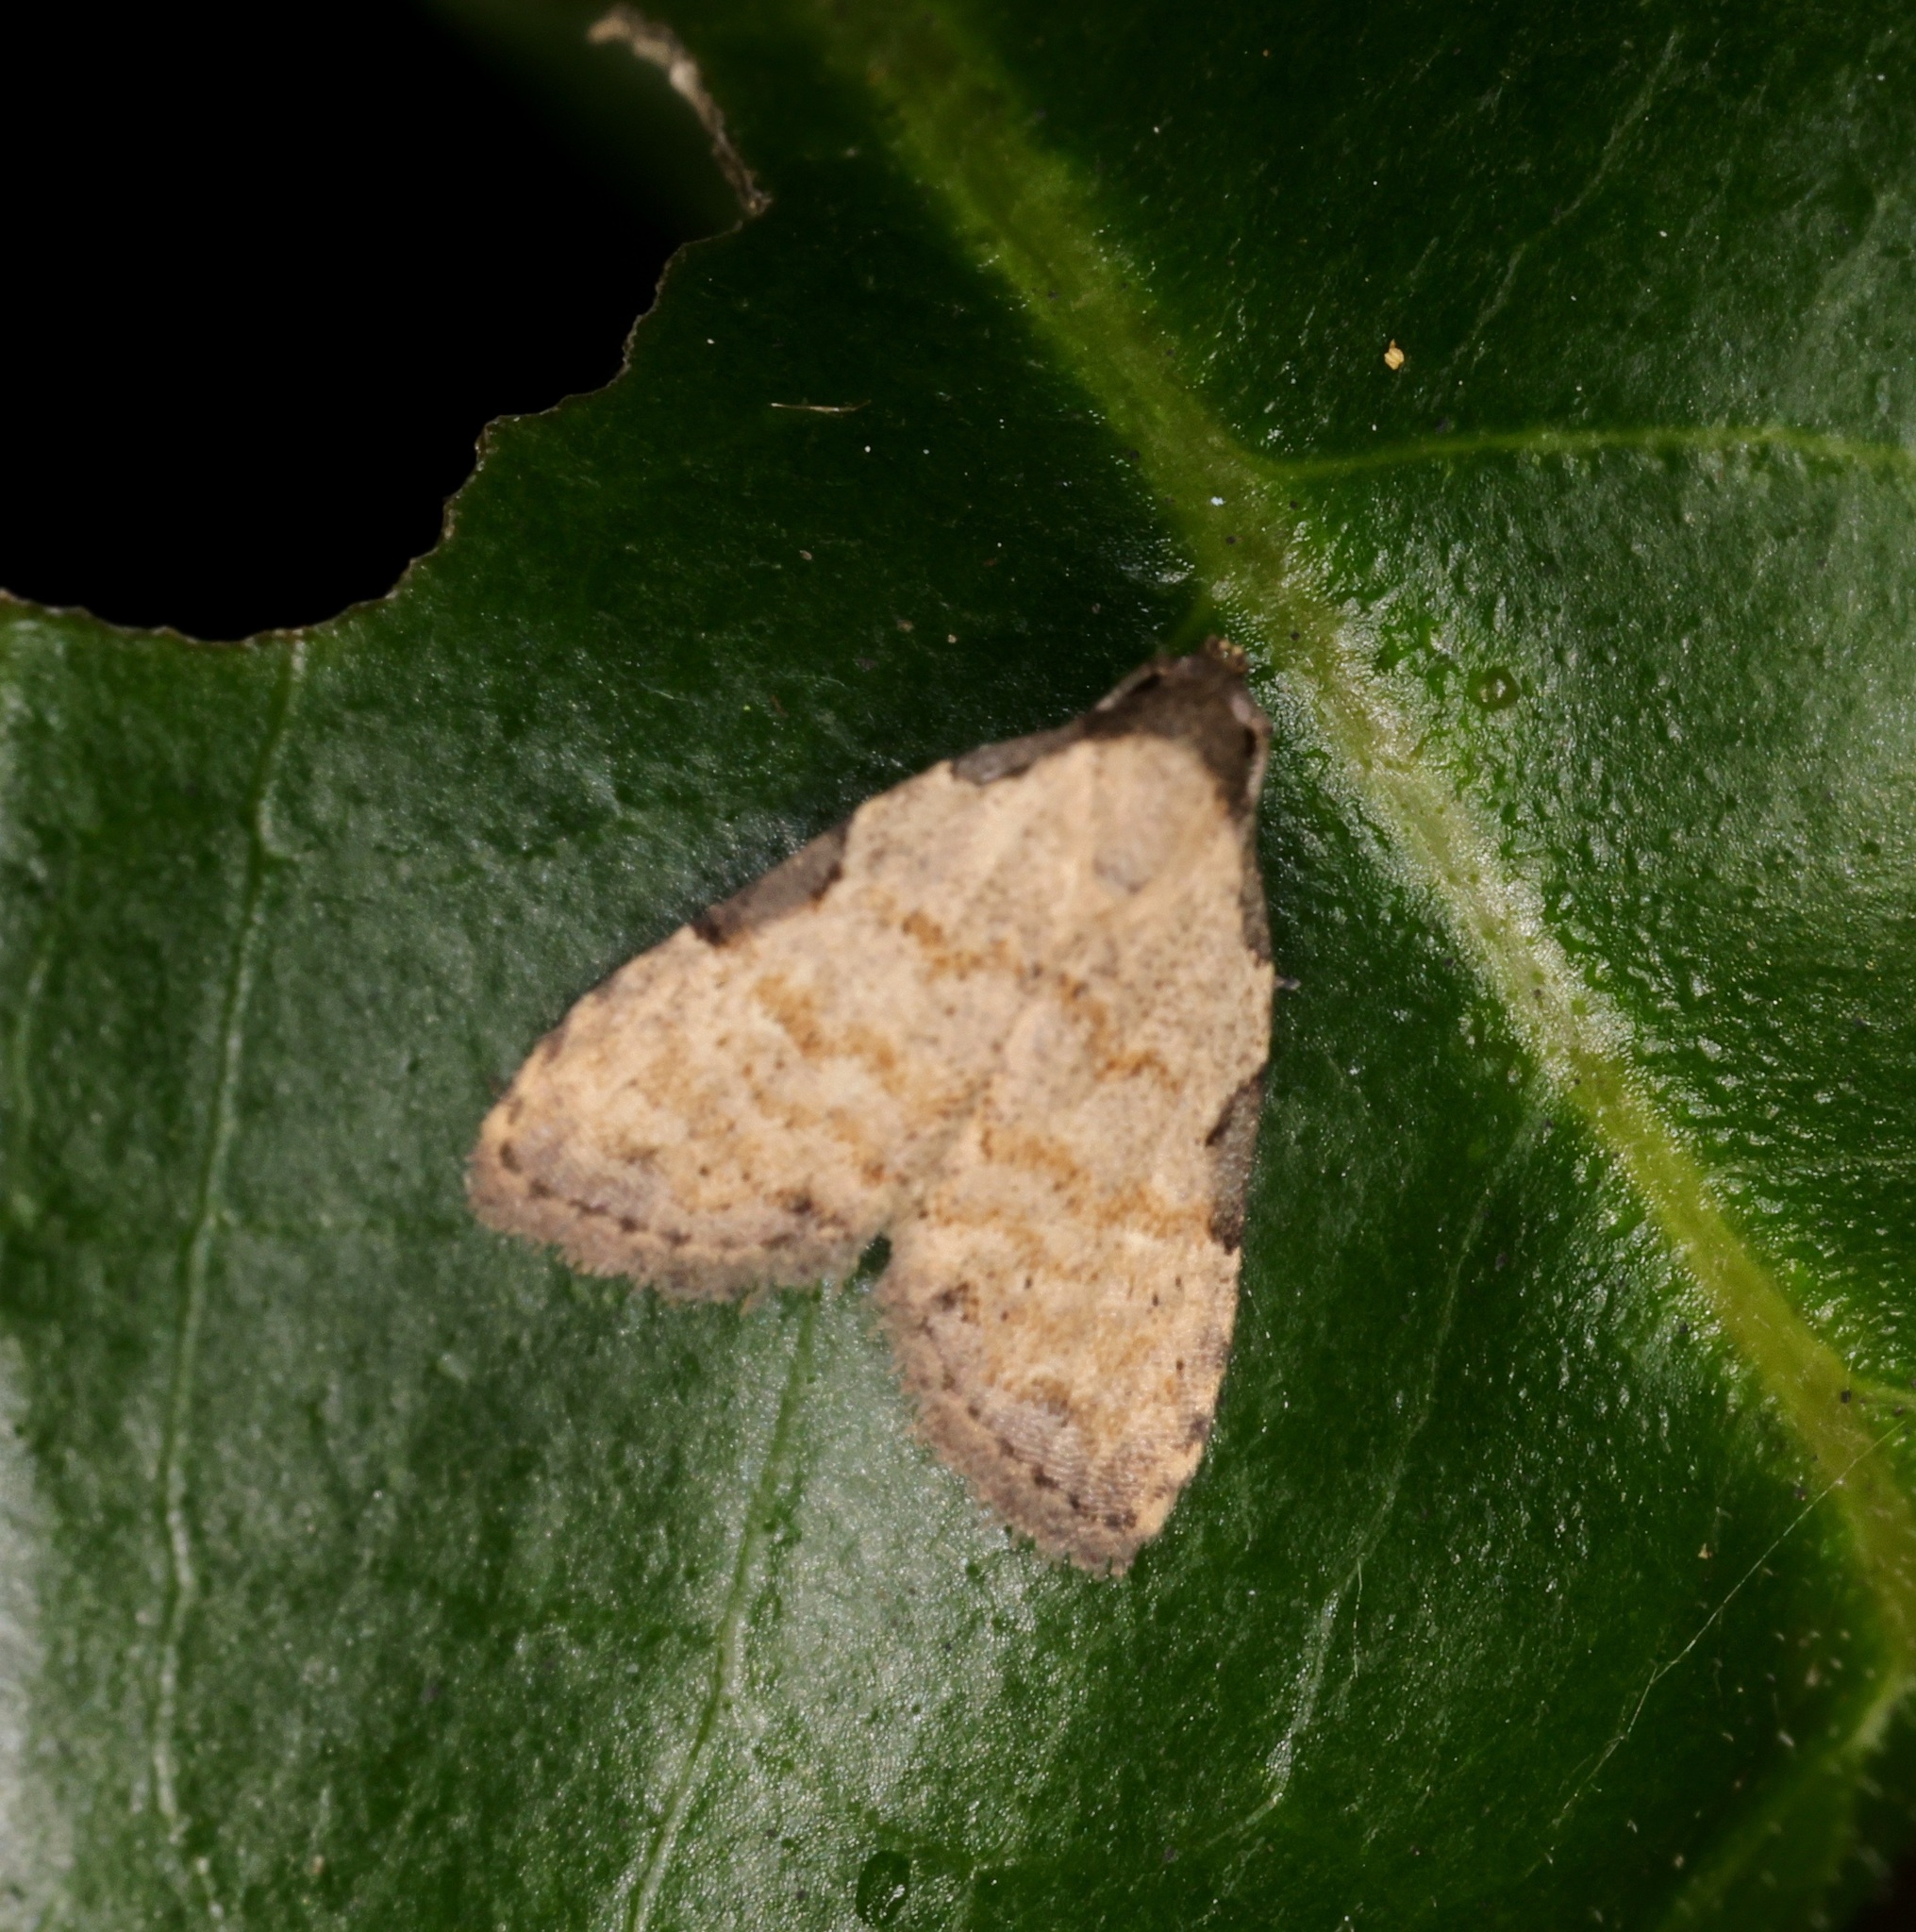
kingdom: Animalia
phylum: Arthropoda
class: Insecta
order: Lepidoptera
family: Erebidae
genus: Tactusa
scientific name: Tactusa
